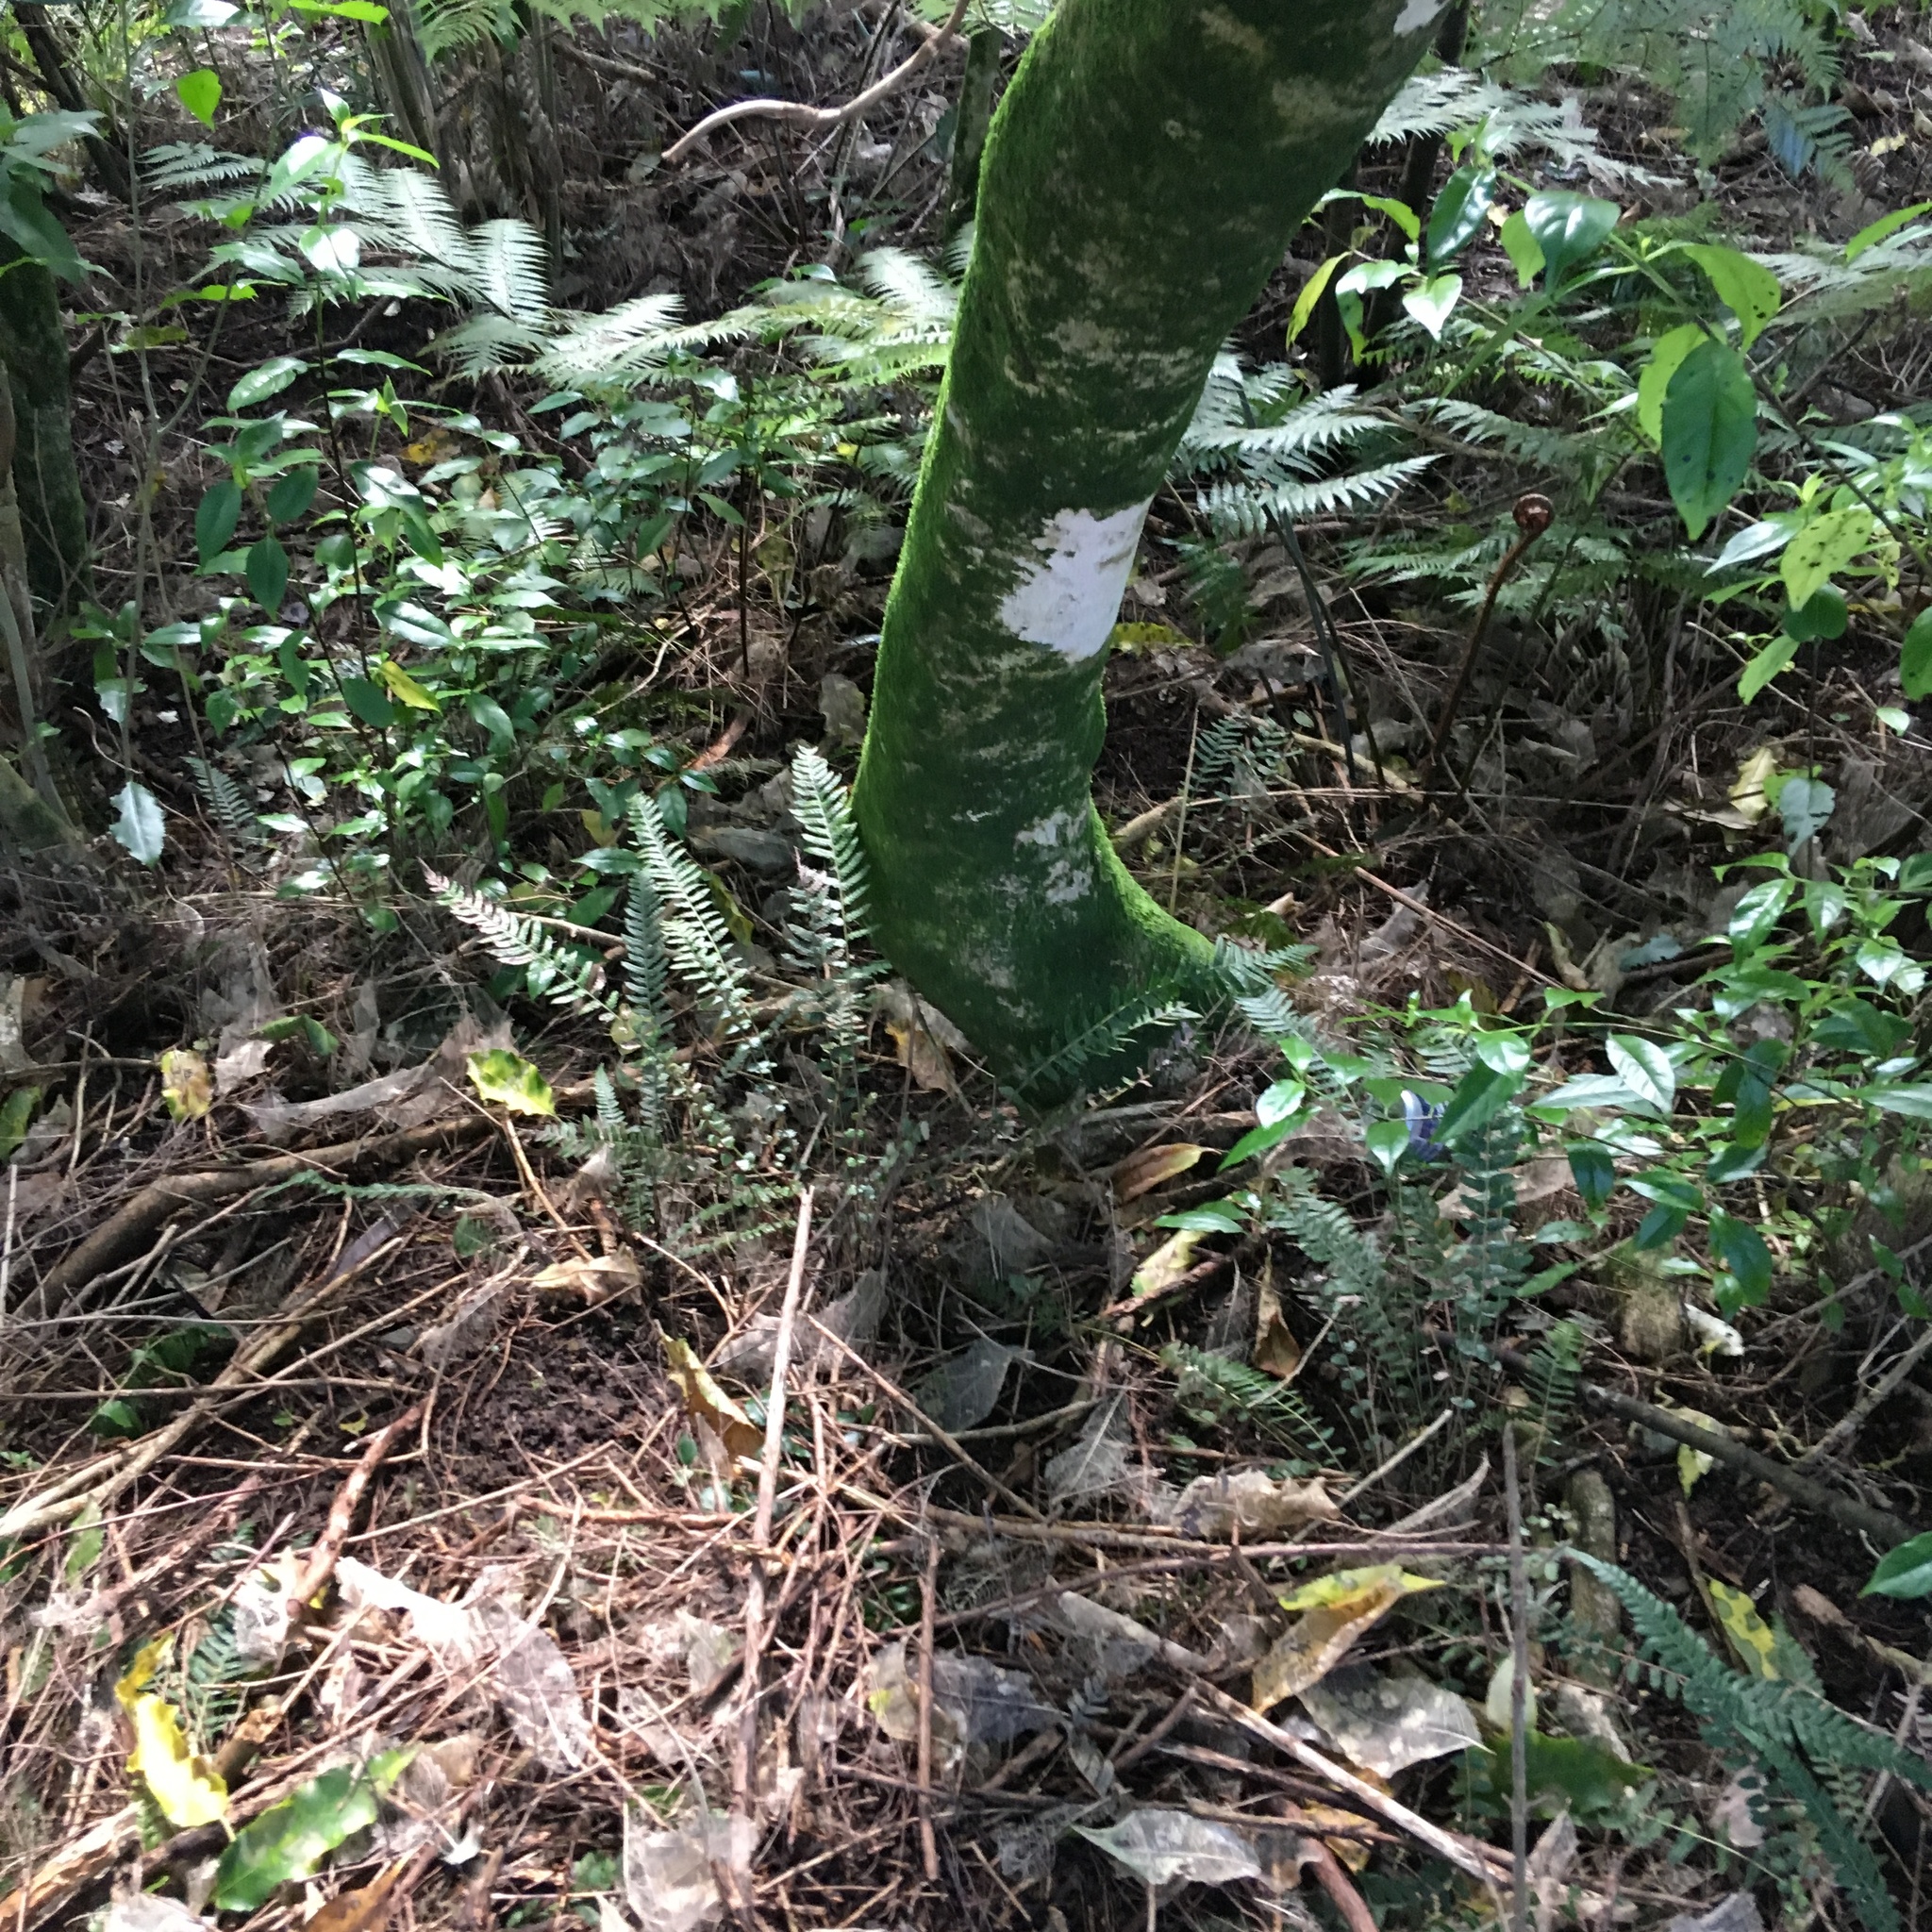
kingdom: Plantae
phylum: Tracheophyta
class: Polypodiopsida
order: Polypodiales
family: Blechnaceae
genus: Doodia
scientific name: Doodia australis
